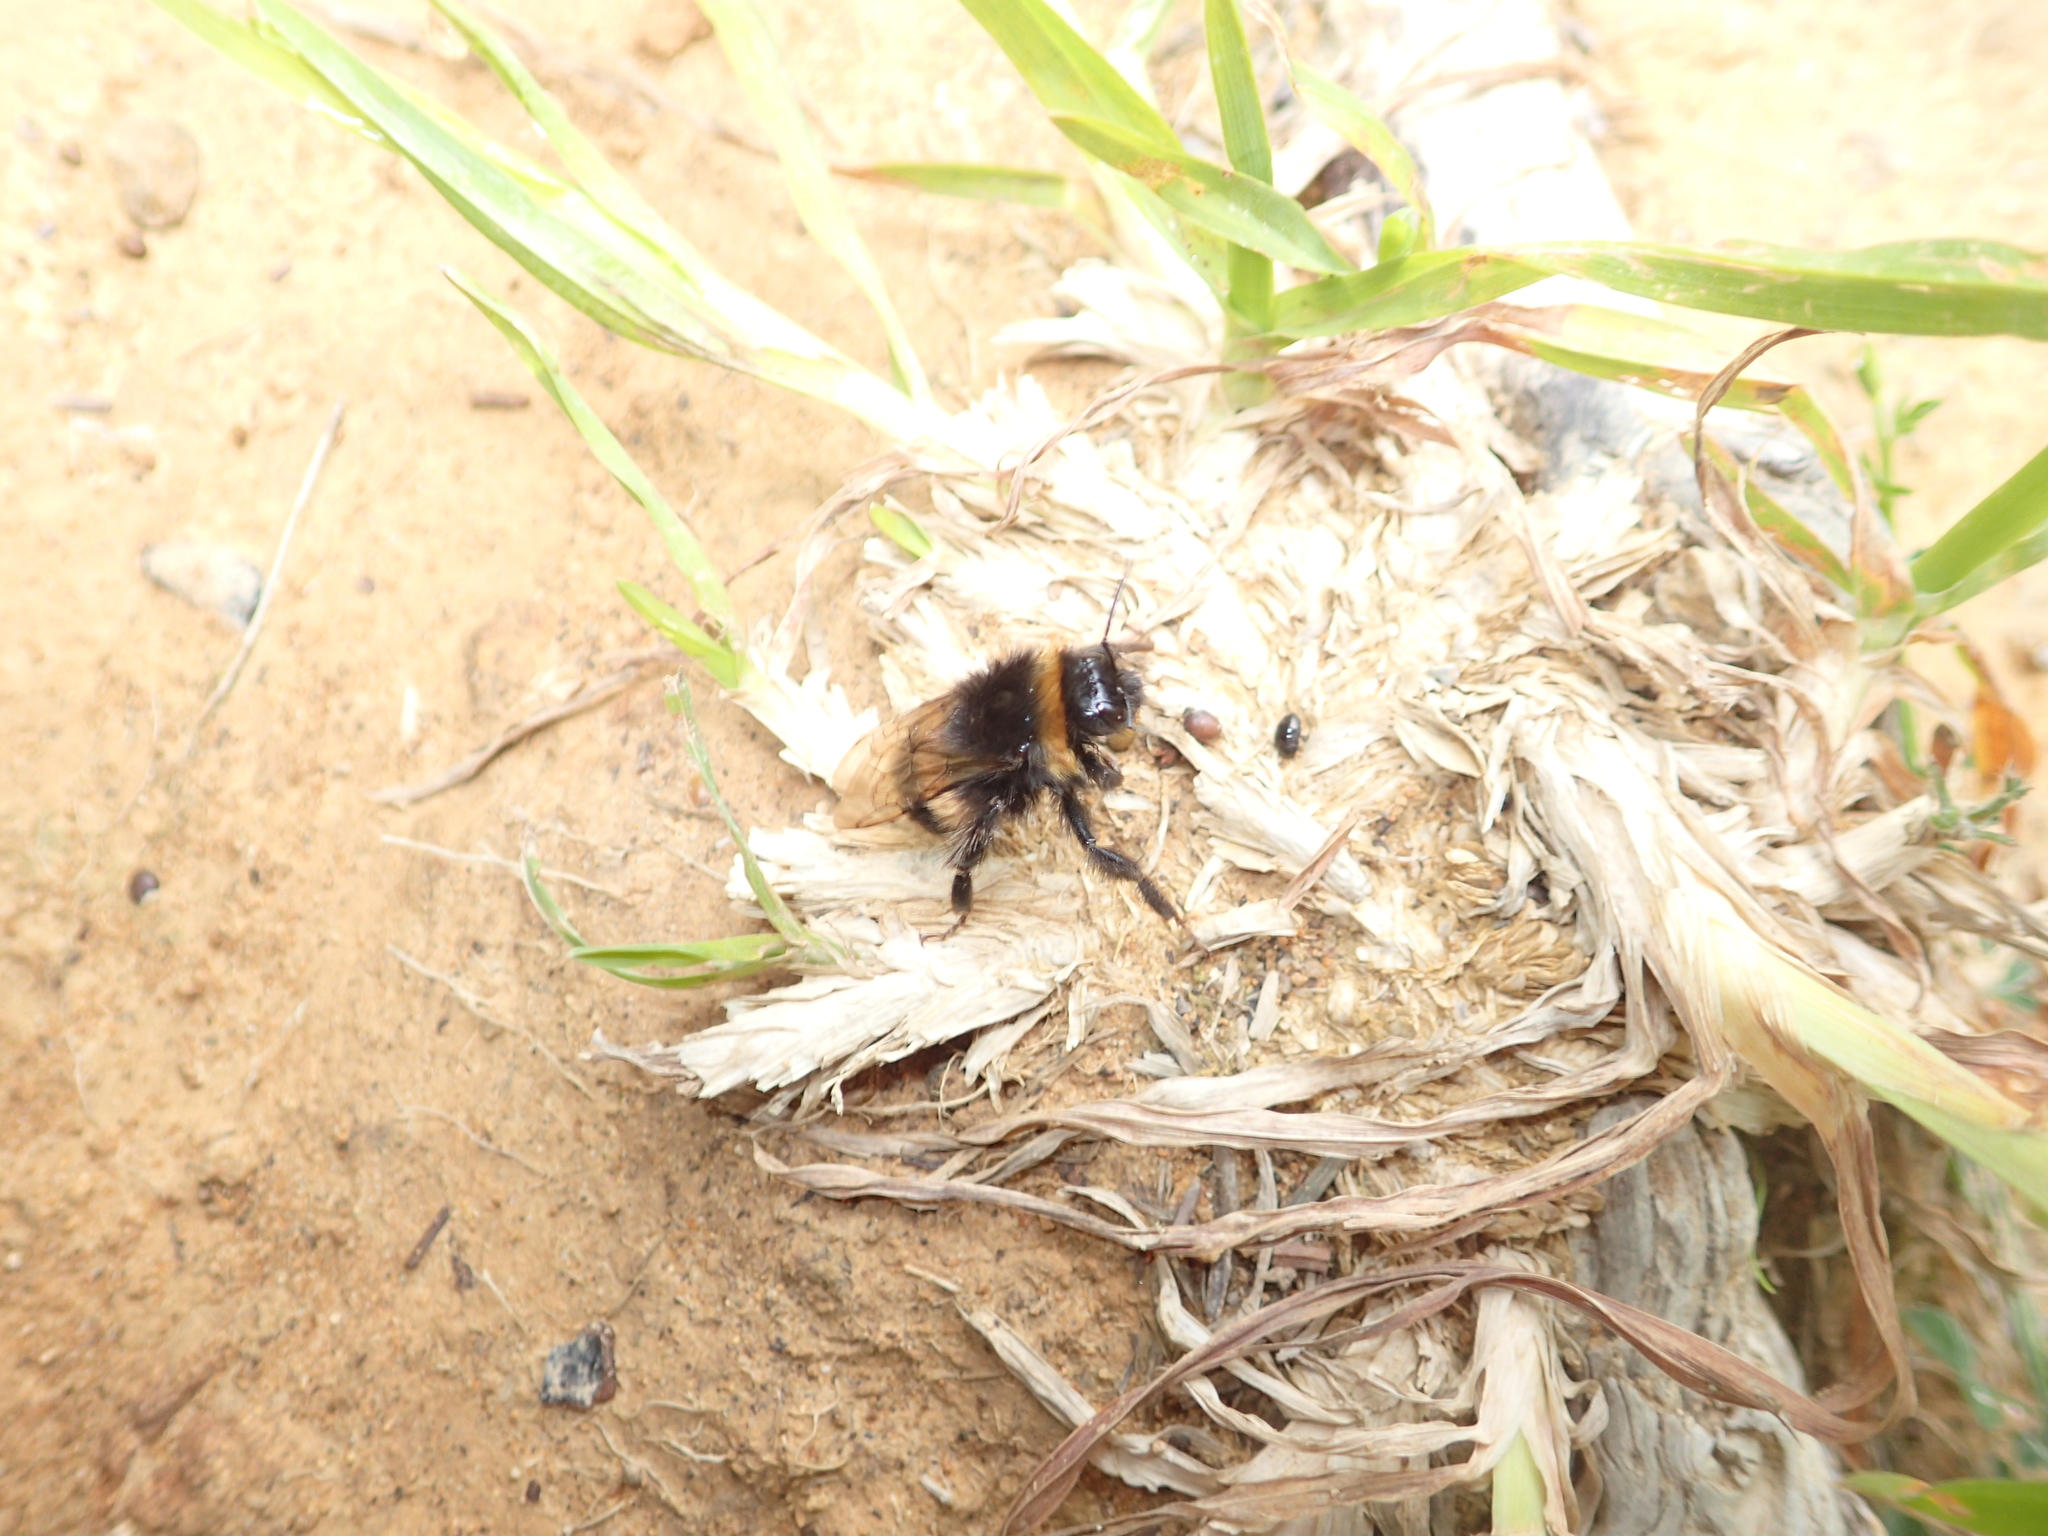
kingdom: Animalia
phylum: Arthropoda
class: Insecta
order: Hymenoptera
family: Apidae
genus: Bombus
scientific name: Bombus terrestris
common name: Buff-tailed bumblebee
